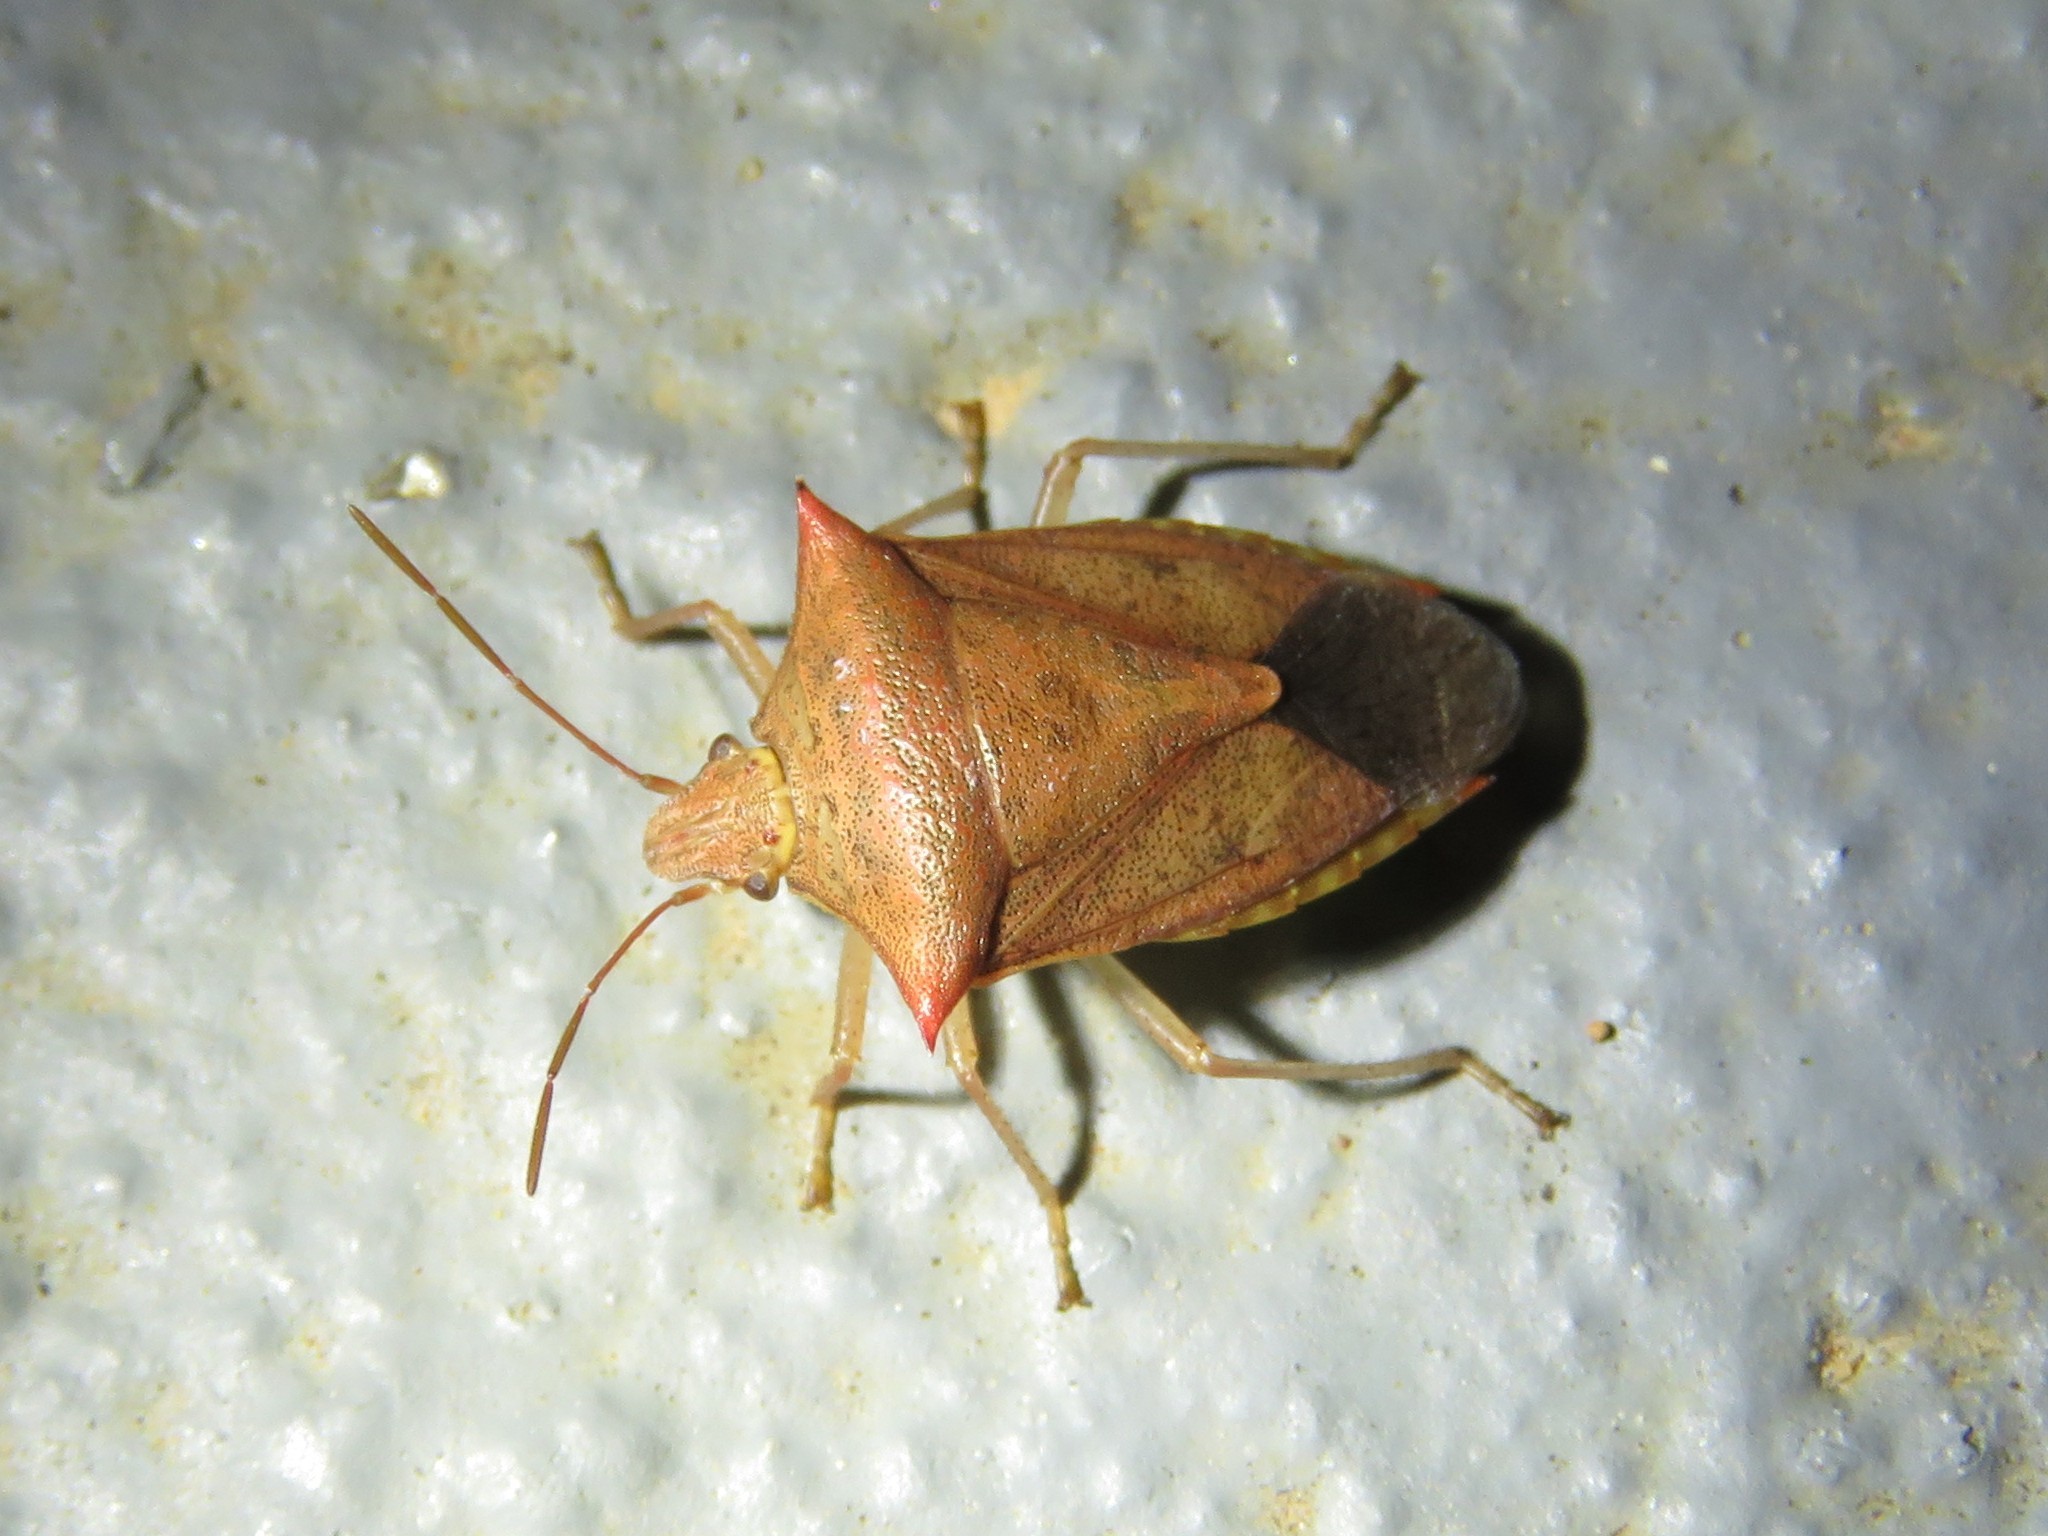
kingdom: Animalia
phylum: Arthropoda
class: Insecta
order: Hemiptera
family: Pentatomidae
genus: Euschistus
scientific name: Euschistus ictericus
